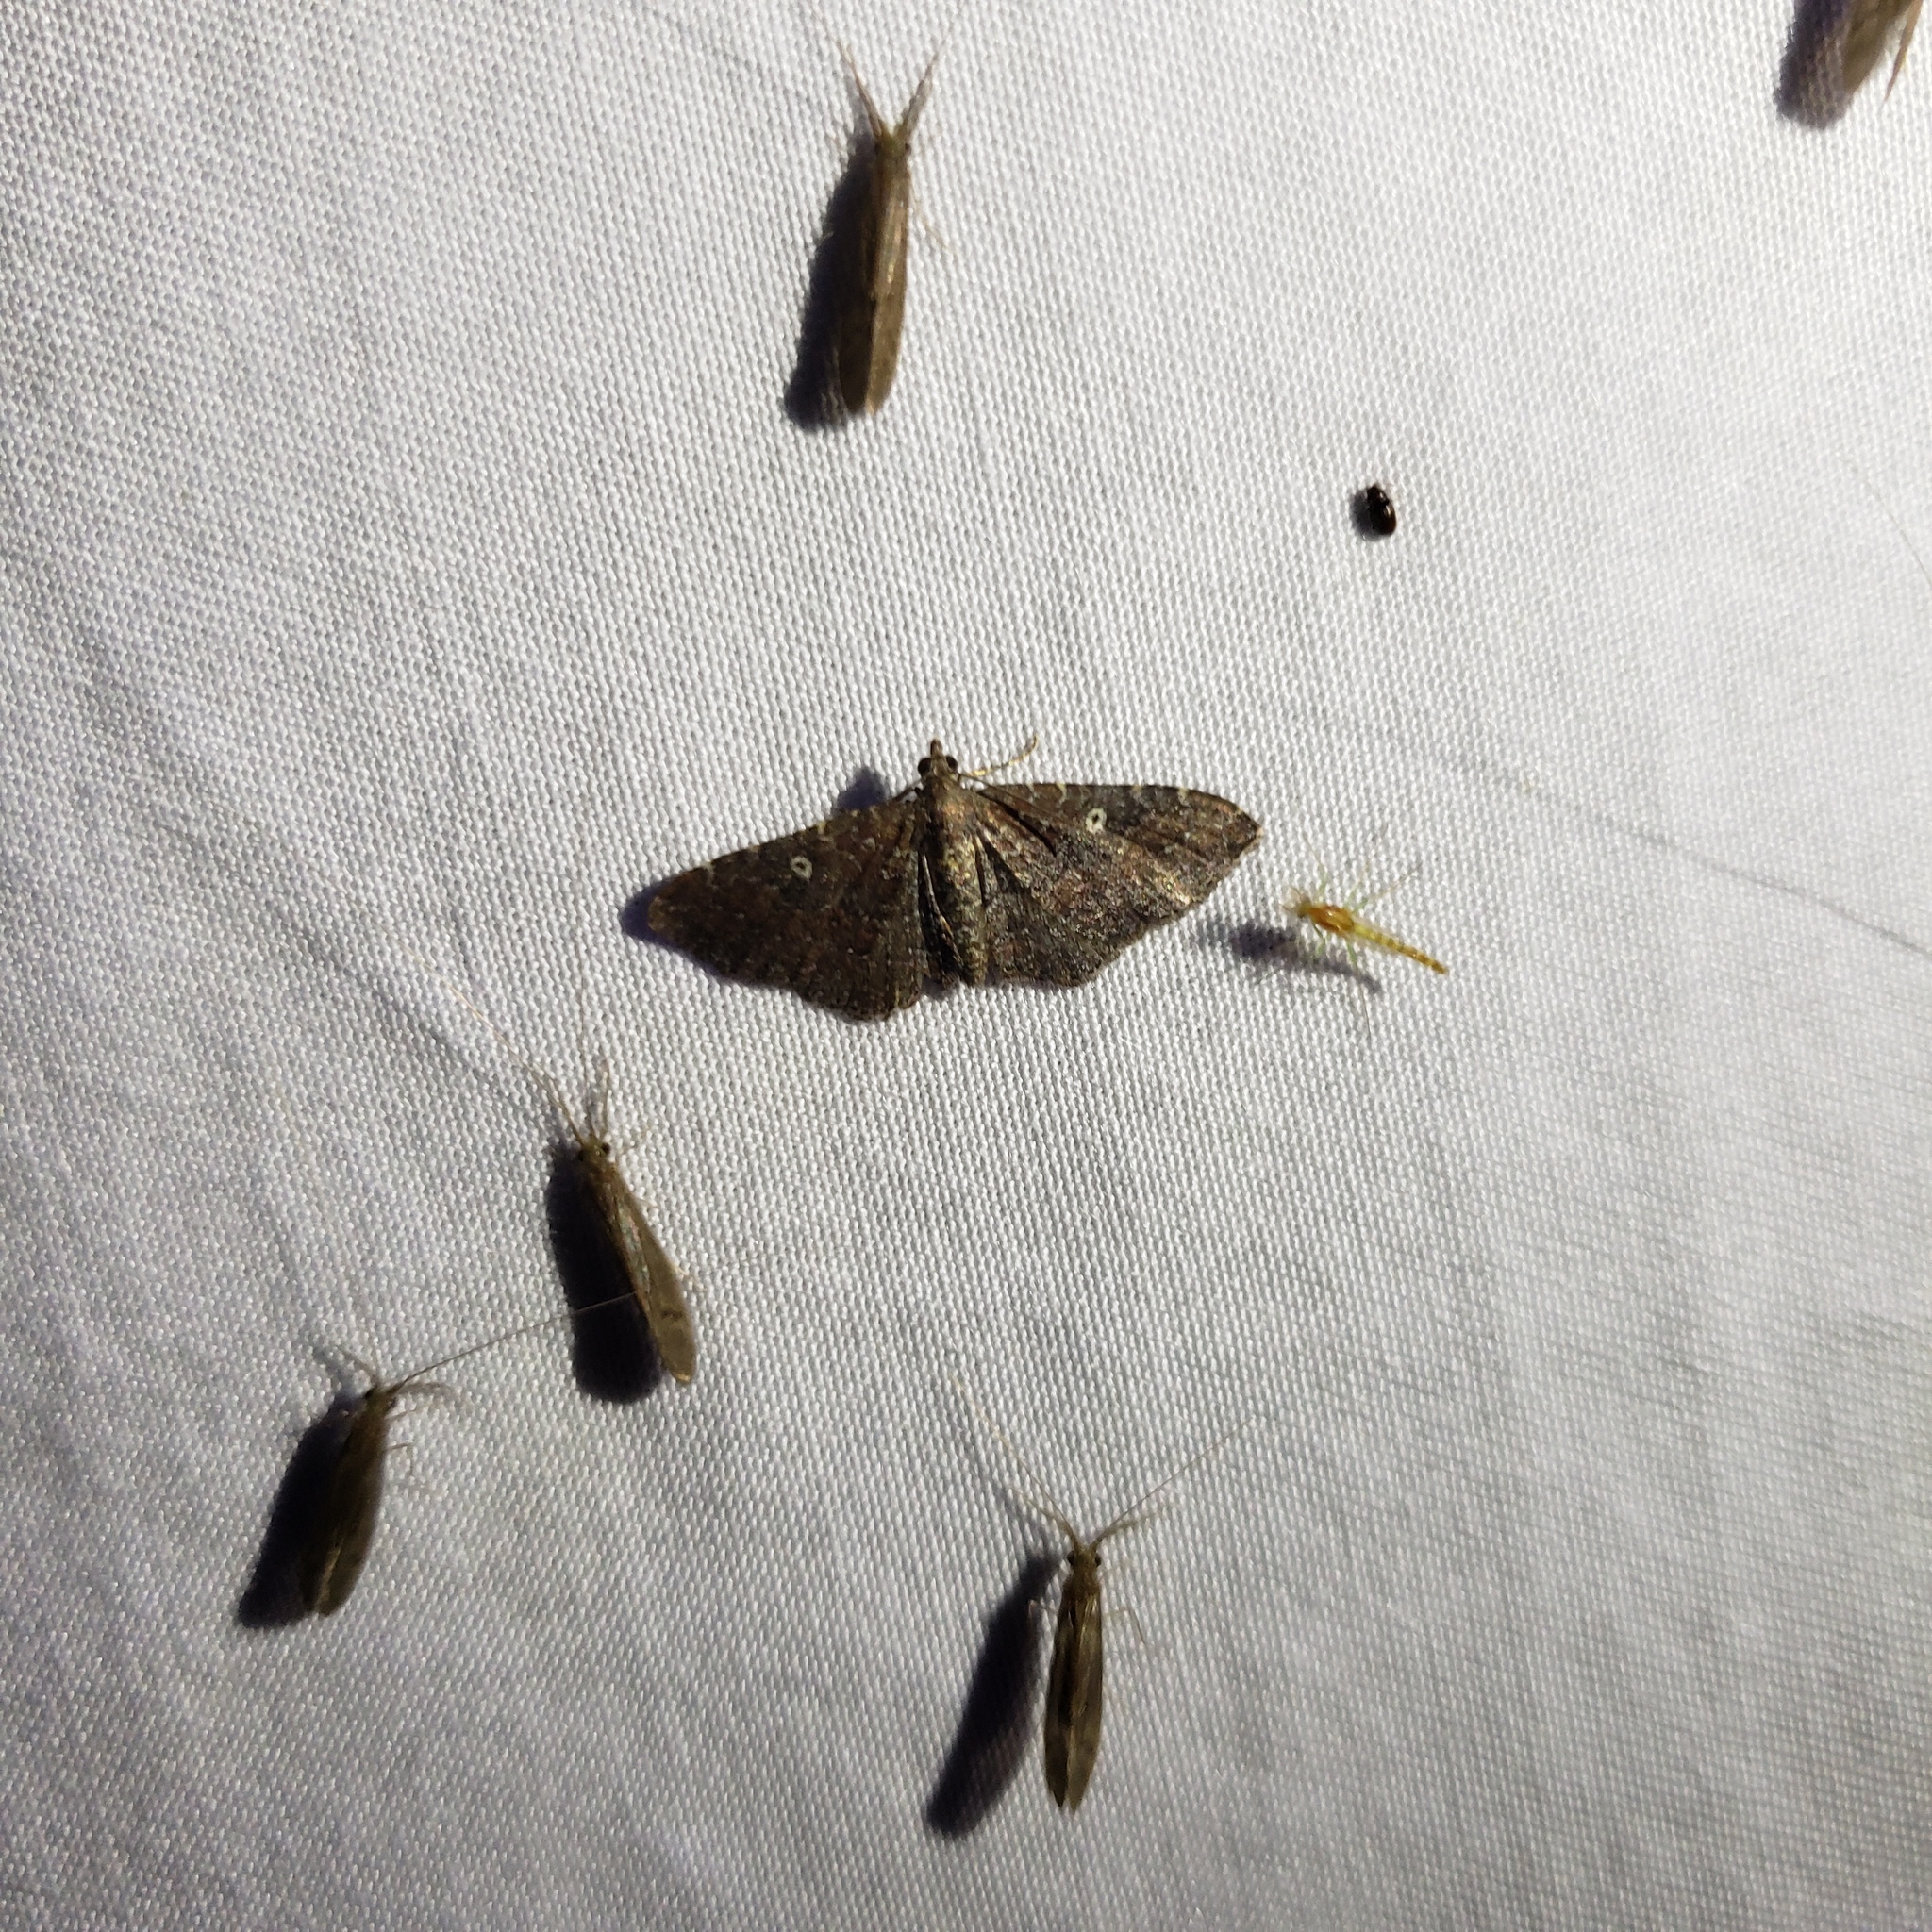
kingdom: Animalia
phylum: Arthropoda
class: Insecta
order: Lepidoptera
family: Geometridae
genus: Orthonama
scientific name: Orthonama obstipata
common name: The gem
